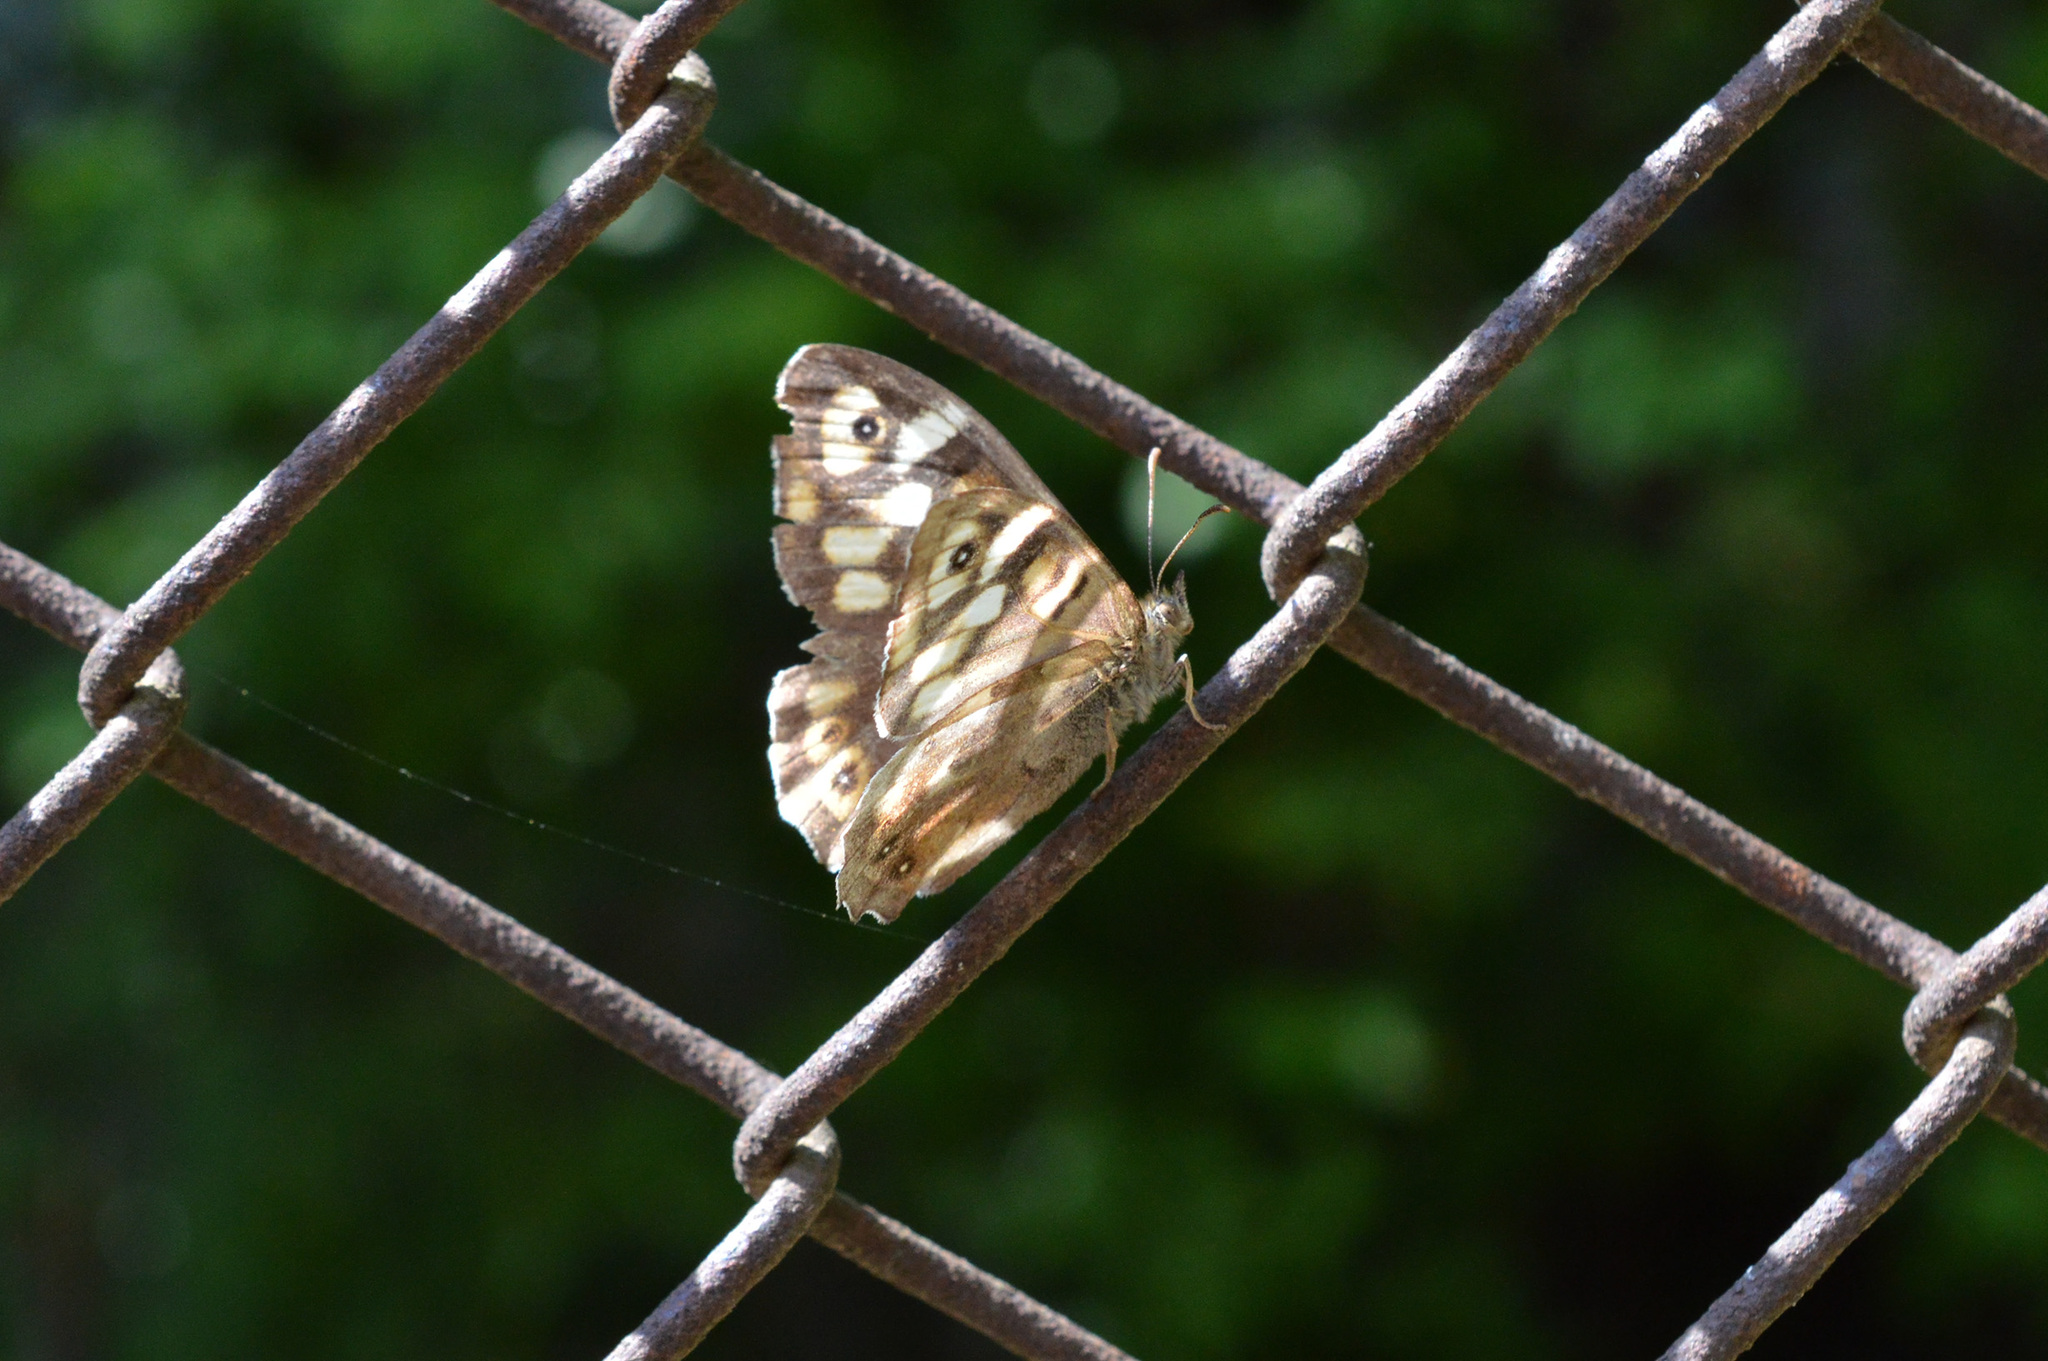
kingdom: Animalia
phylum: Arthropoda
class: Insecta
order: Lepidoptera
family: Nymphalidae
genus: Pararge
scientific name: Pararge aegeria
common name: Speckled wood
